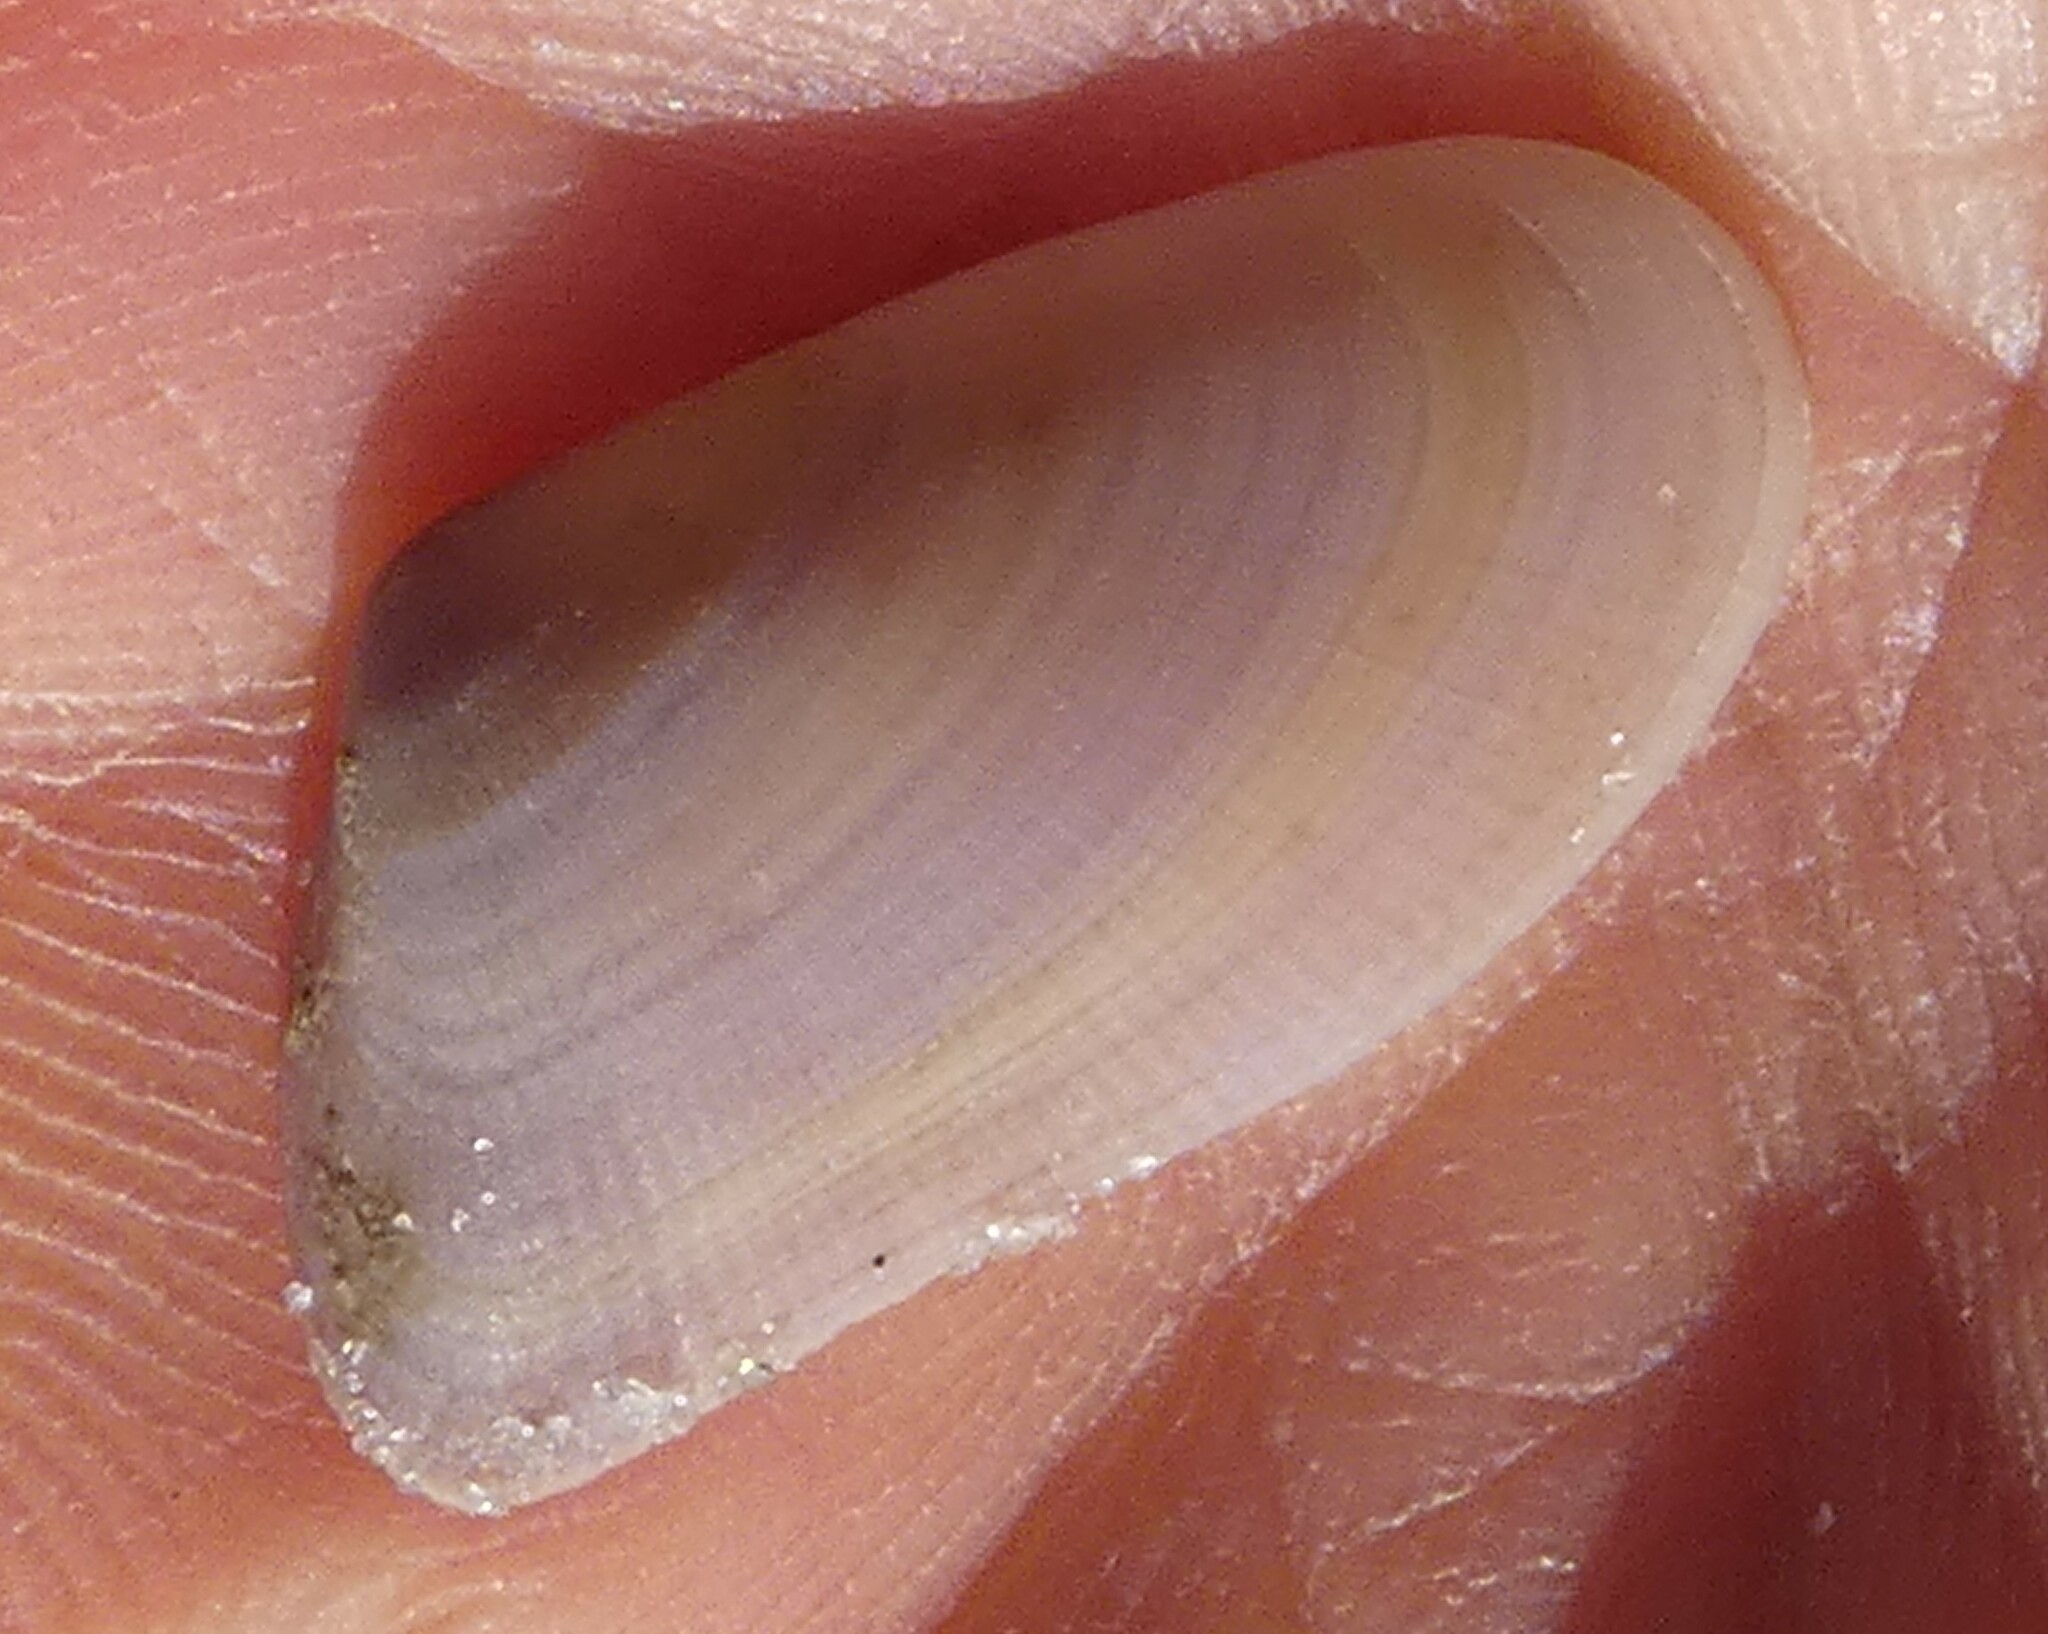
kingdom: Animalia
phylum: Mollusca
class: Bivalvia
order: Cardiida
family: Donacidae
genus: Donax
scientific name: Donax variabilis
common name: Butterfly shell
